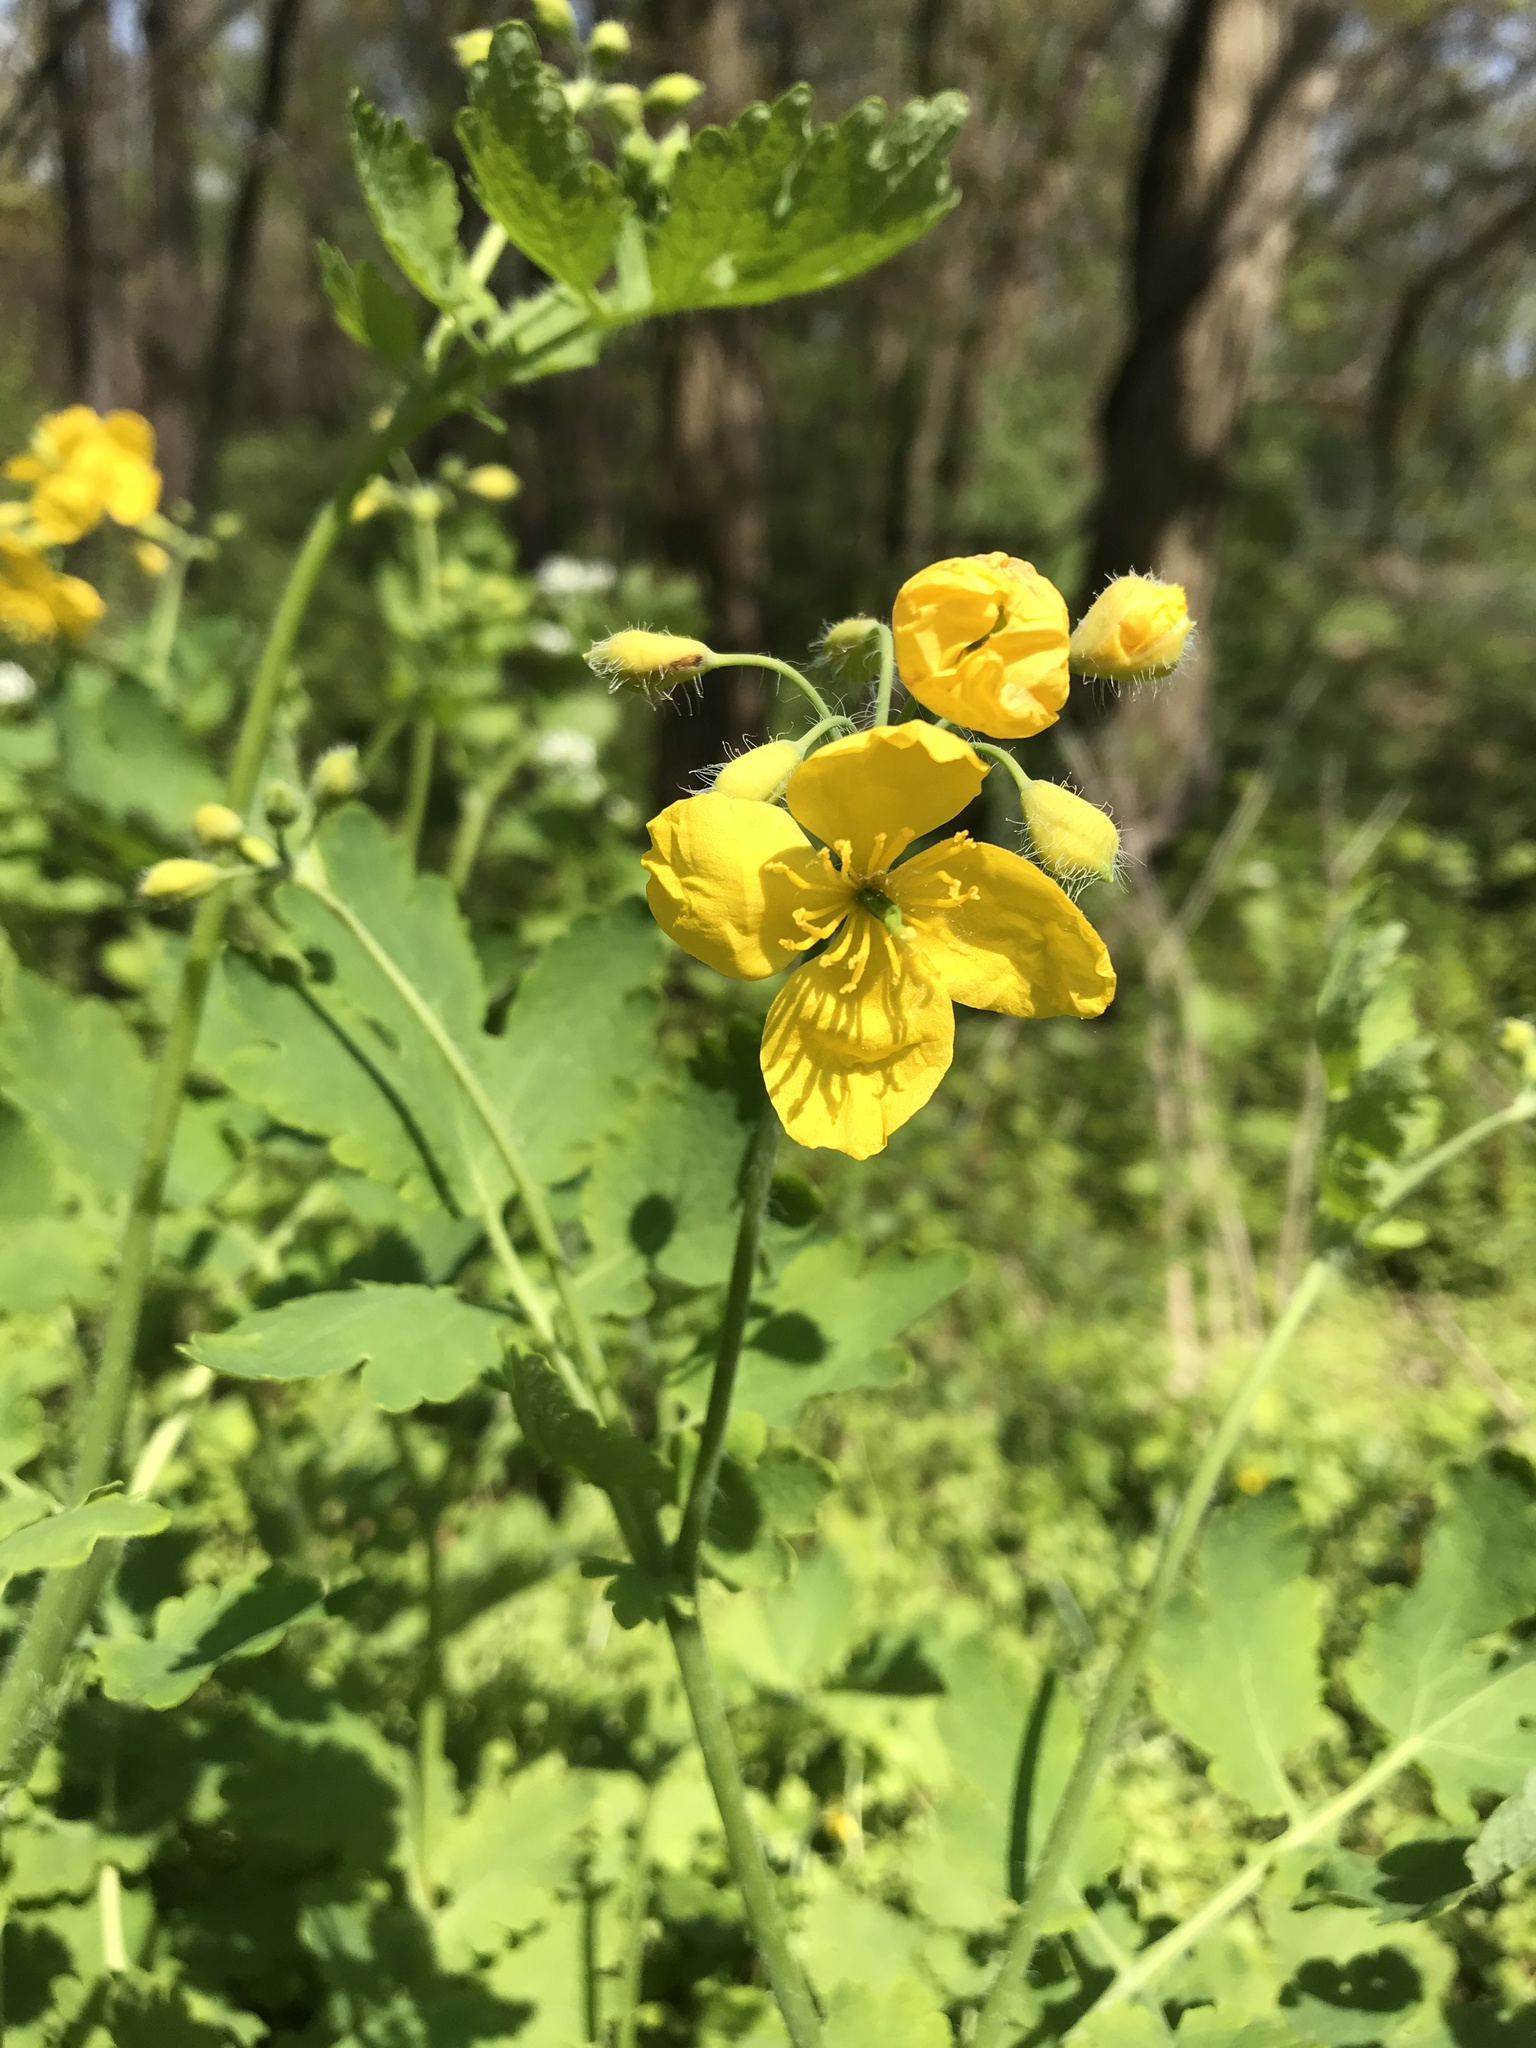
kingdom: Plantae
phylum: Tracheophyta
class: Magnoliopsida
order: Ranunculales
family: Papaveraceae
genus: Chelidonium
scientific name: Chelidonium majus
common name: Greater celandine
